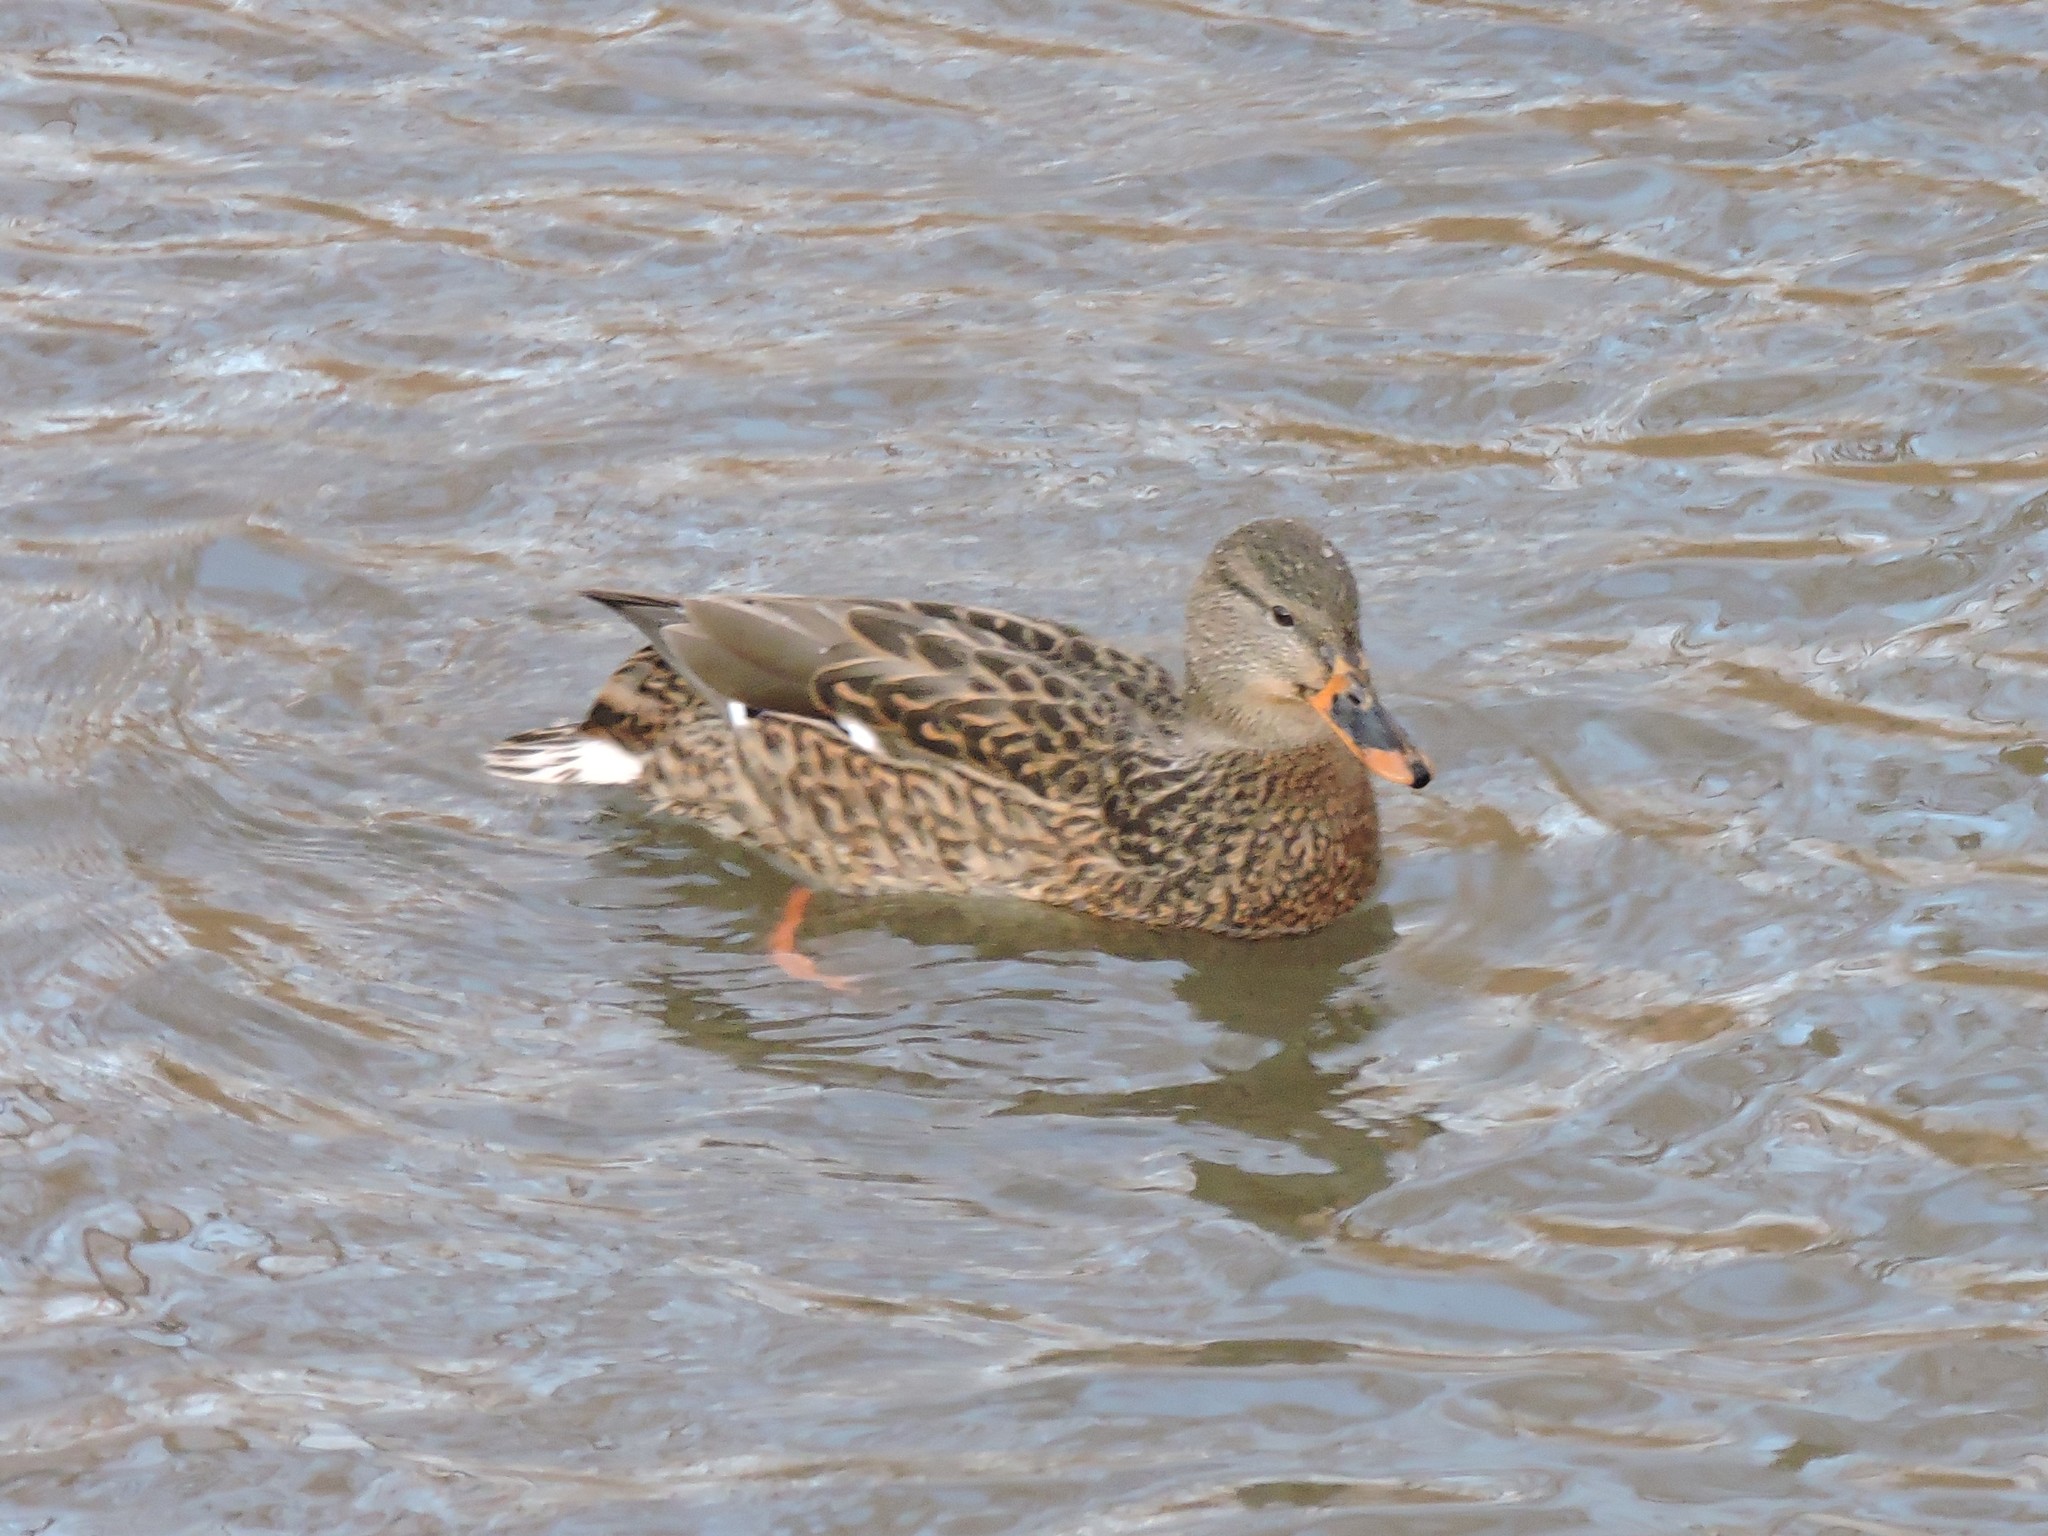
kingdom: Animalia
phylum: Chordata
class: Aves
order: Anseriformes
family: Anatidae
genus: Anas
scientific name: Anas platyrhynchos
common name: Mallard
